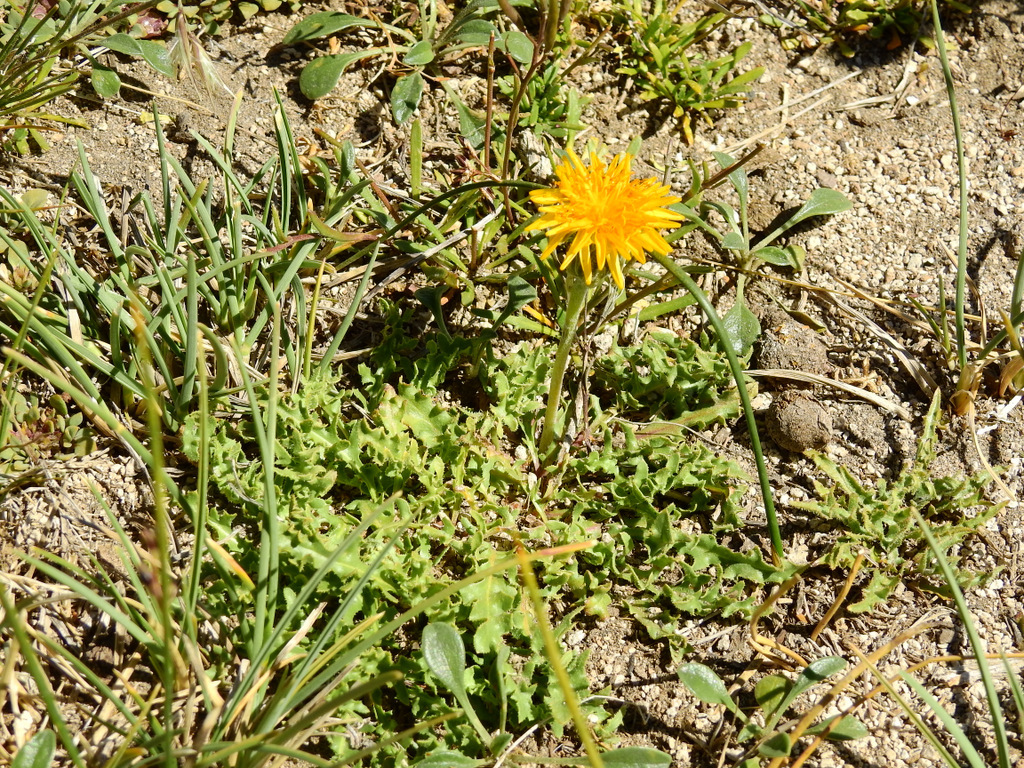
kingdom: Plantae
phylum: Tracheophyta
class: Magnoliopsida
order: Asterales
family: Asteraceae
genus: Hypochaeris
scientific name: Hypochaeris tenuifolia
